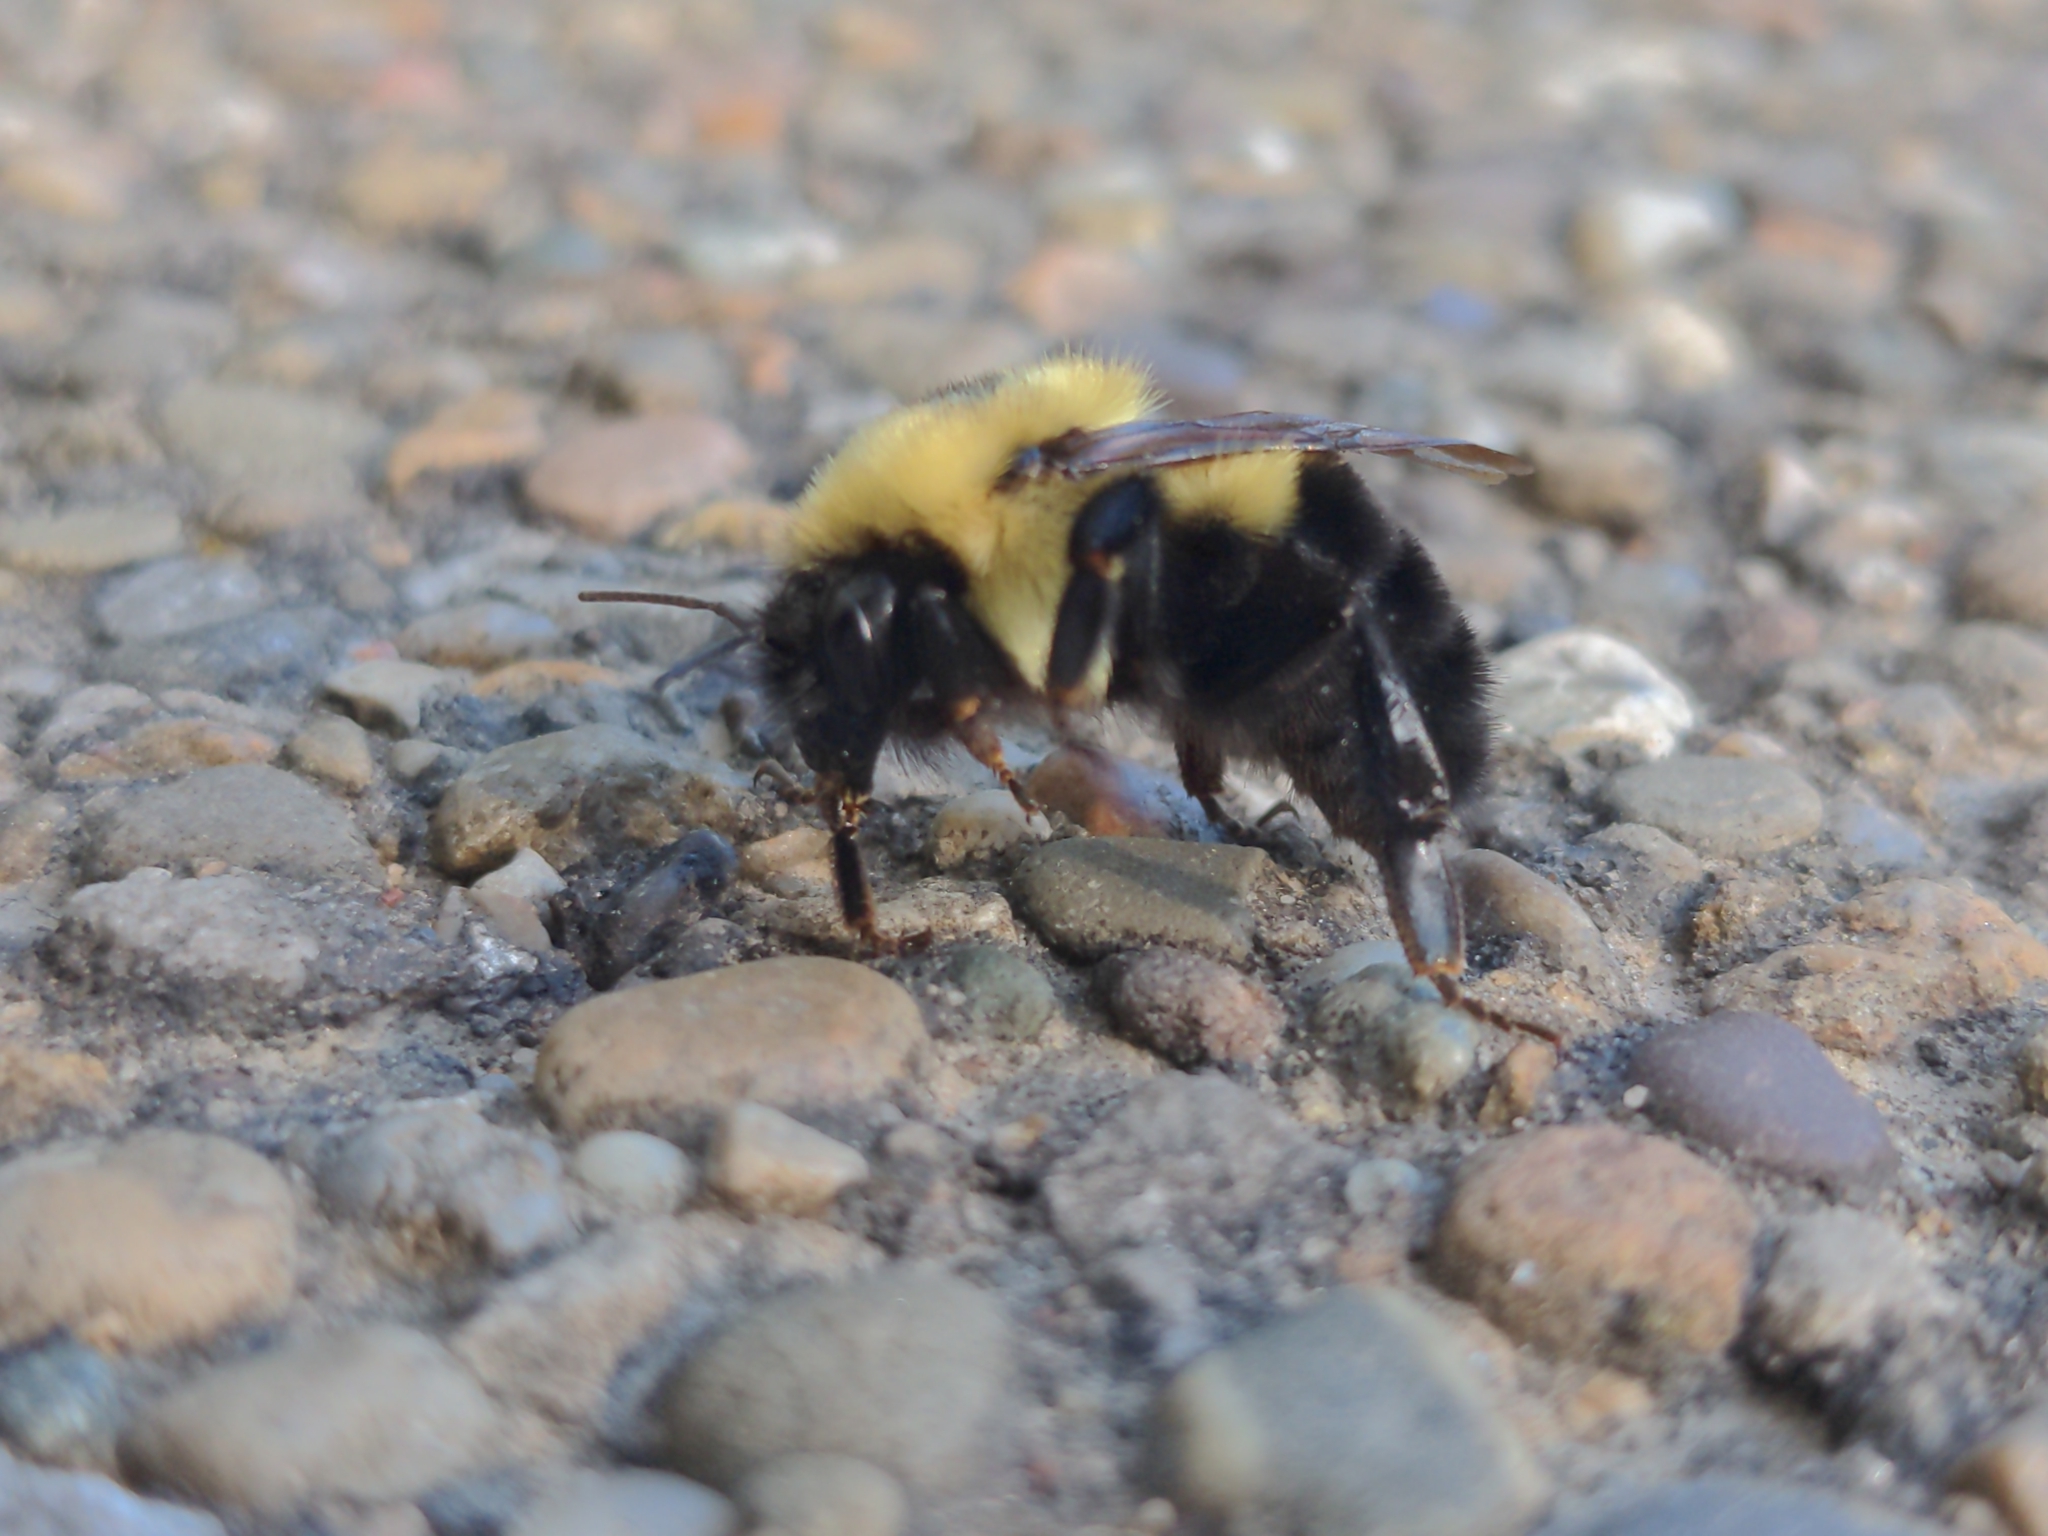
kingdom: Animalia
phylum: Arthropoda
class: Insecta
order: Hymenoptera
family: Apidae
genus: Bombus
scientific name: Bombus bimaculatus
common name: Two-spotted bumble bee
